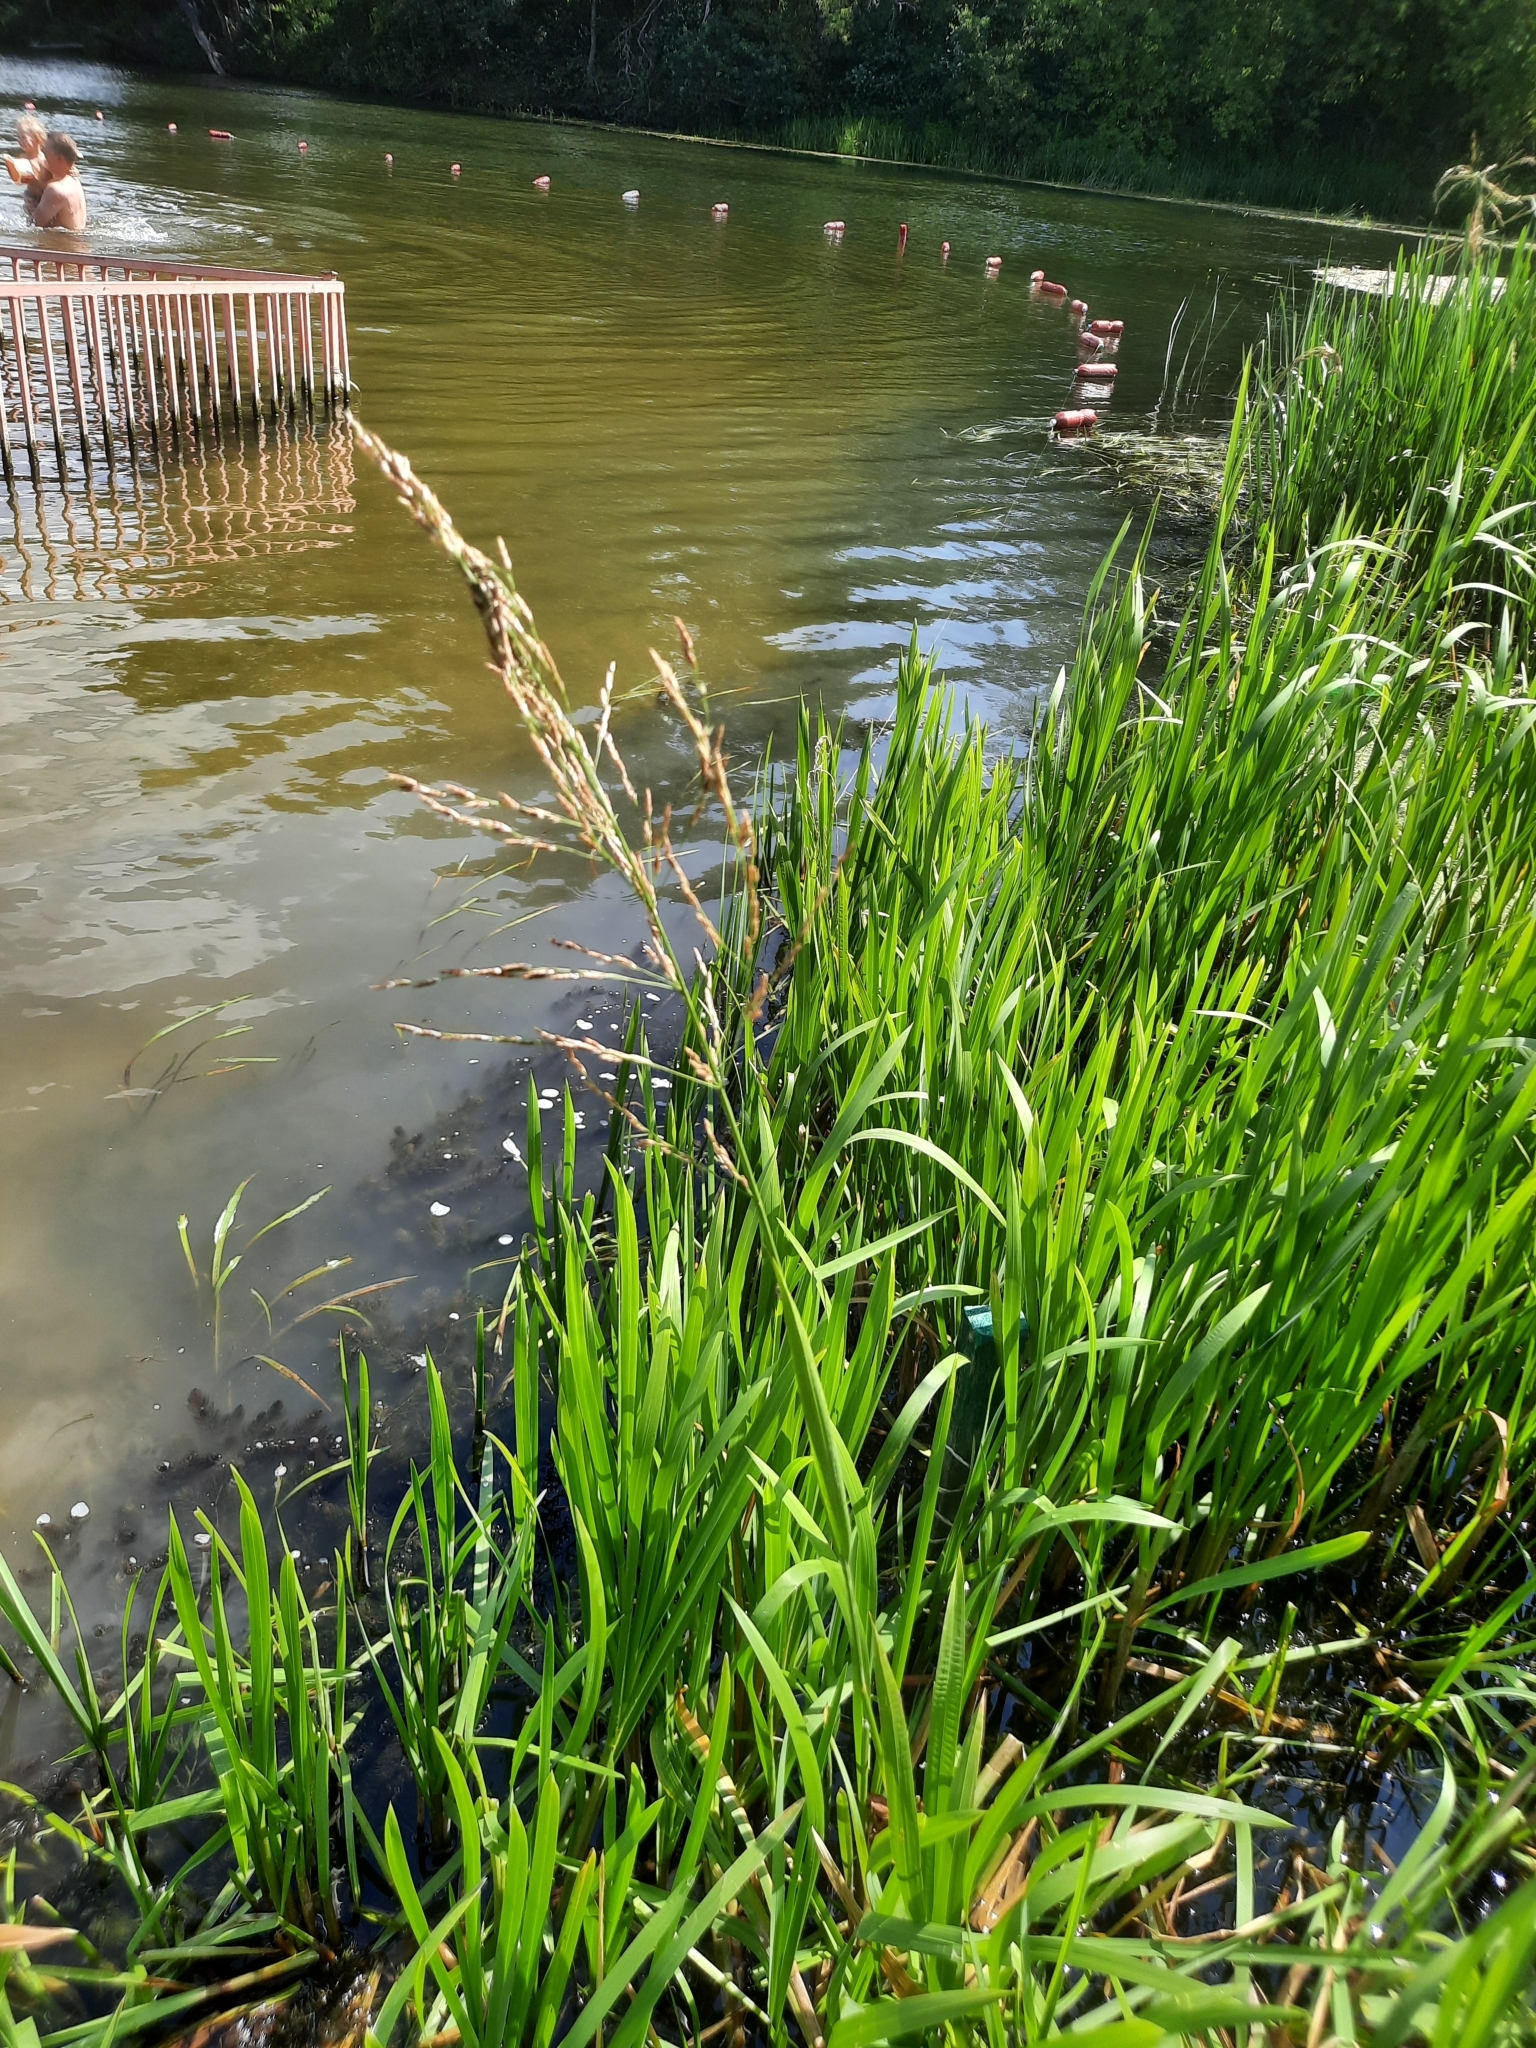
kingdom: Plantae
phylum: Tracheophyta
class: Liliopsida
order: Poales
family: Poaceae
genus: Glyceria
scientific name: Glyceria maxima
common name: Reed mannagrass
